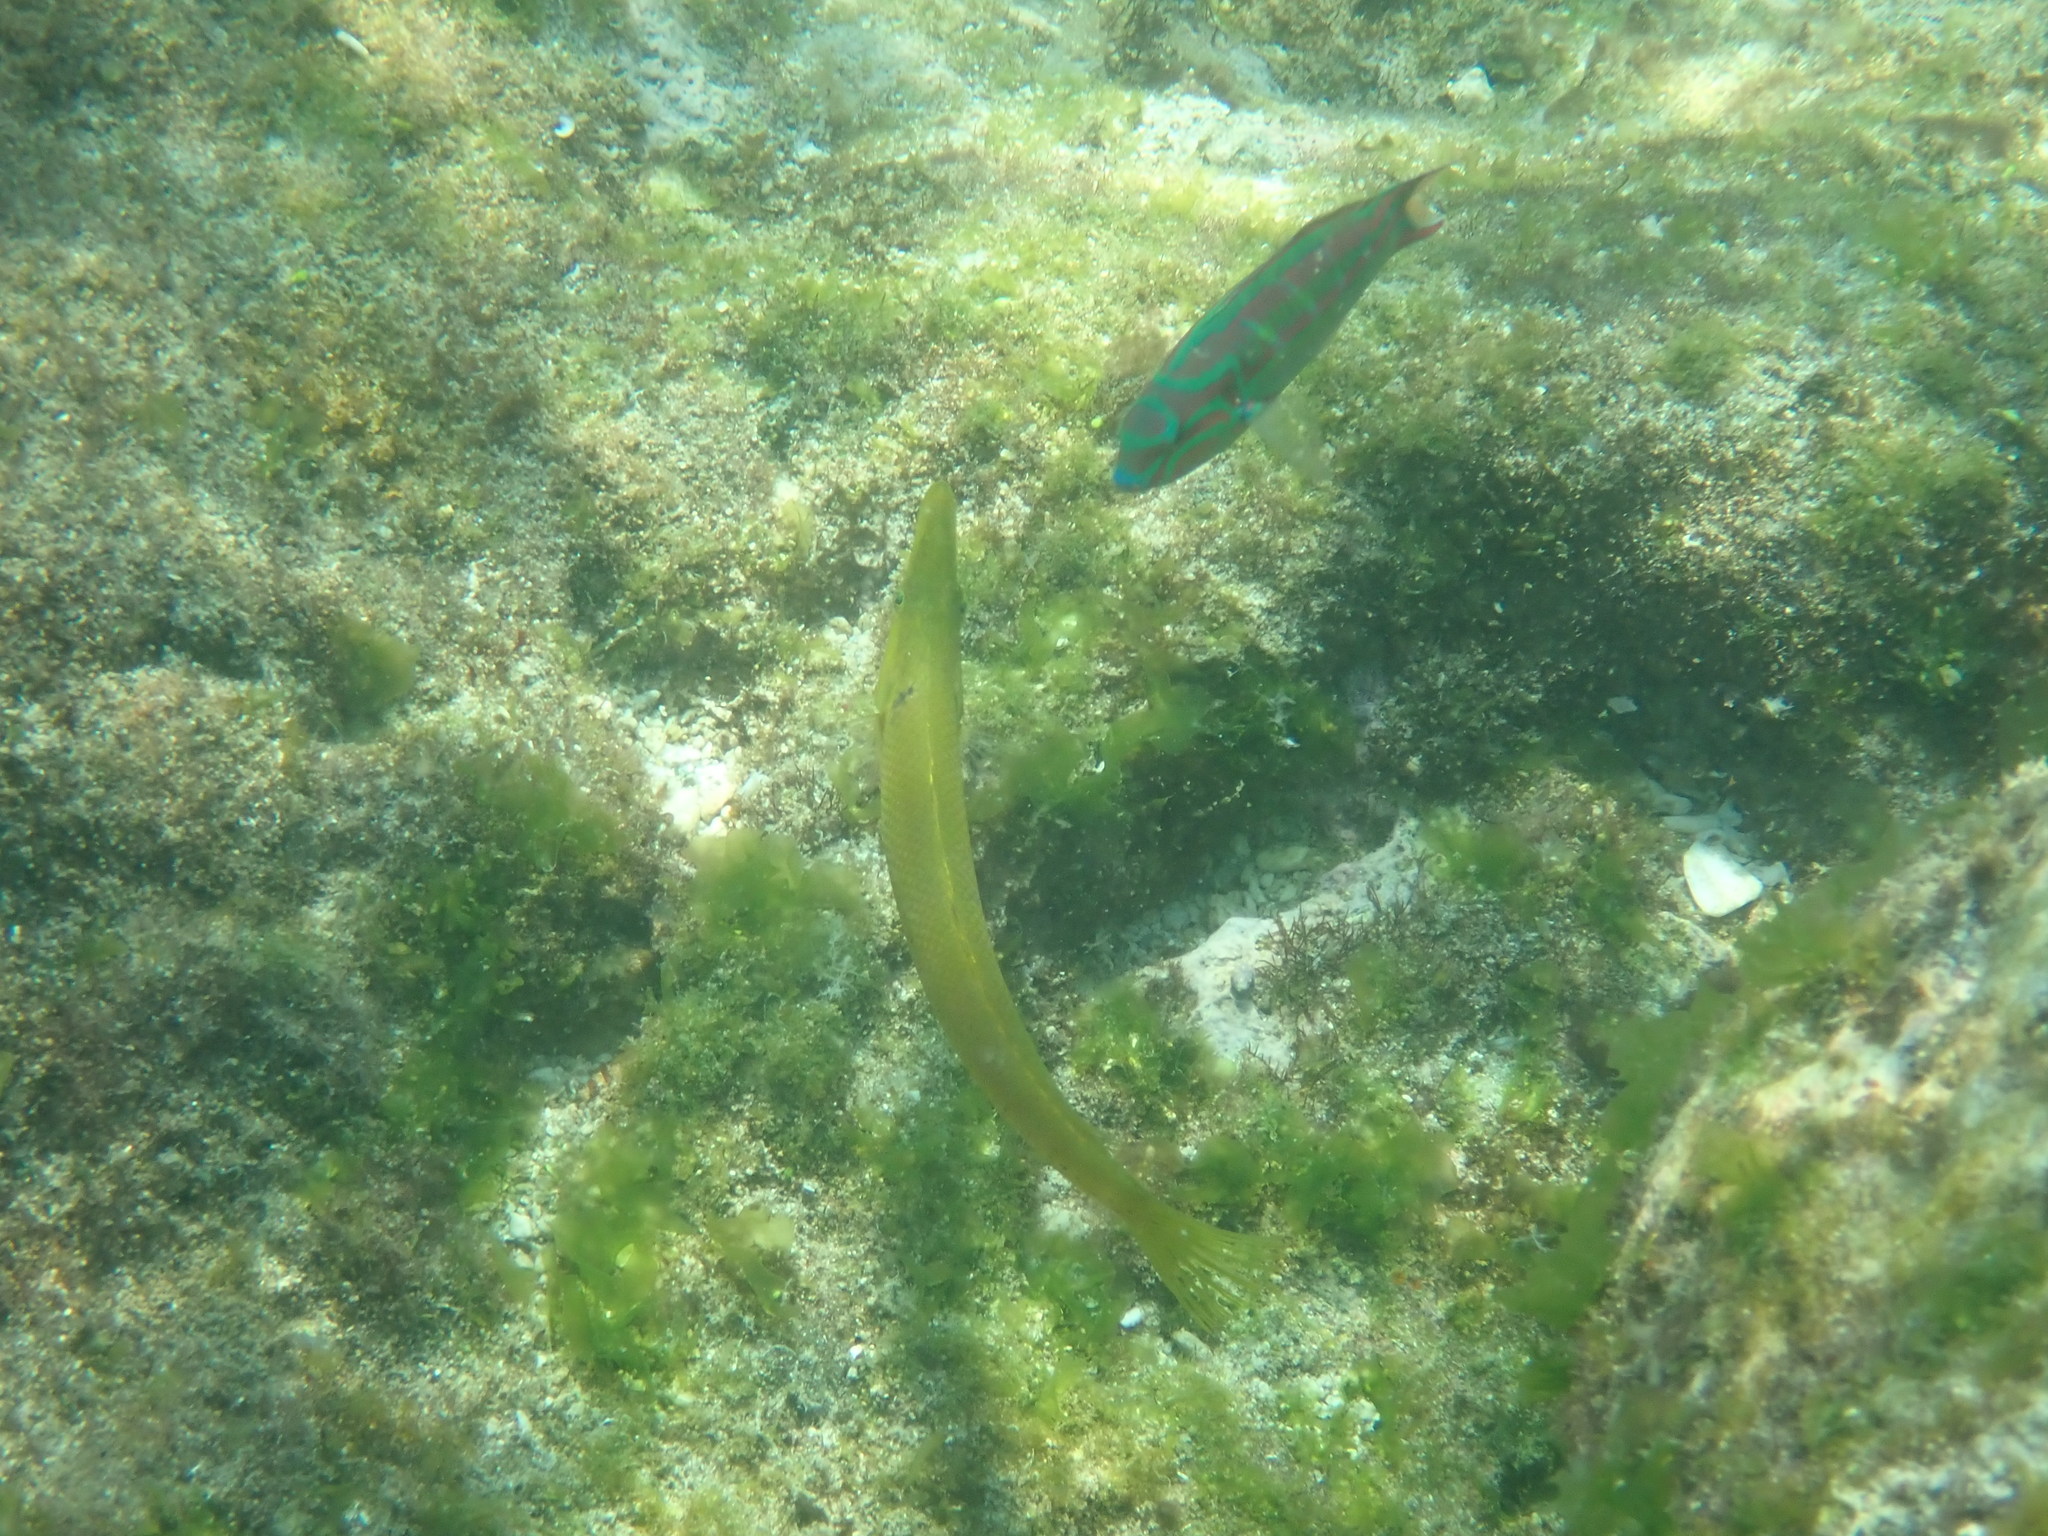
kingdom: Animalia
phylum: Chordata
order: Perciformes
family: Labridae
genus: Cheilio
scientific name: Cheilio inermis
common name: Cigar wrasse
